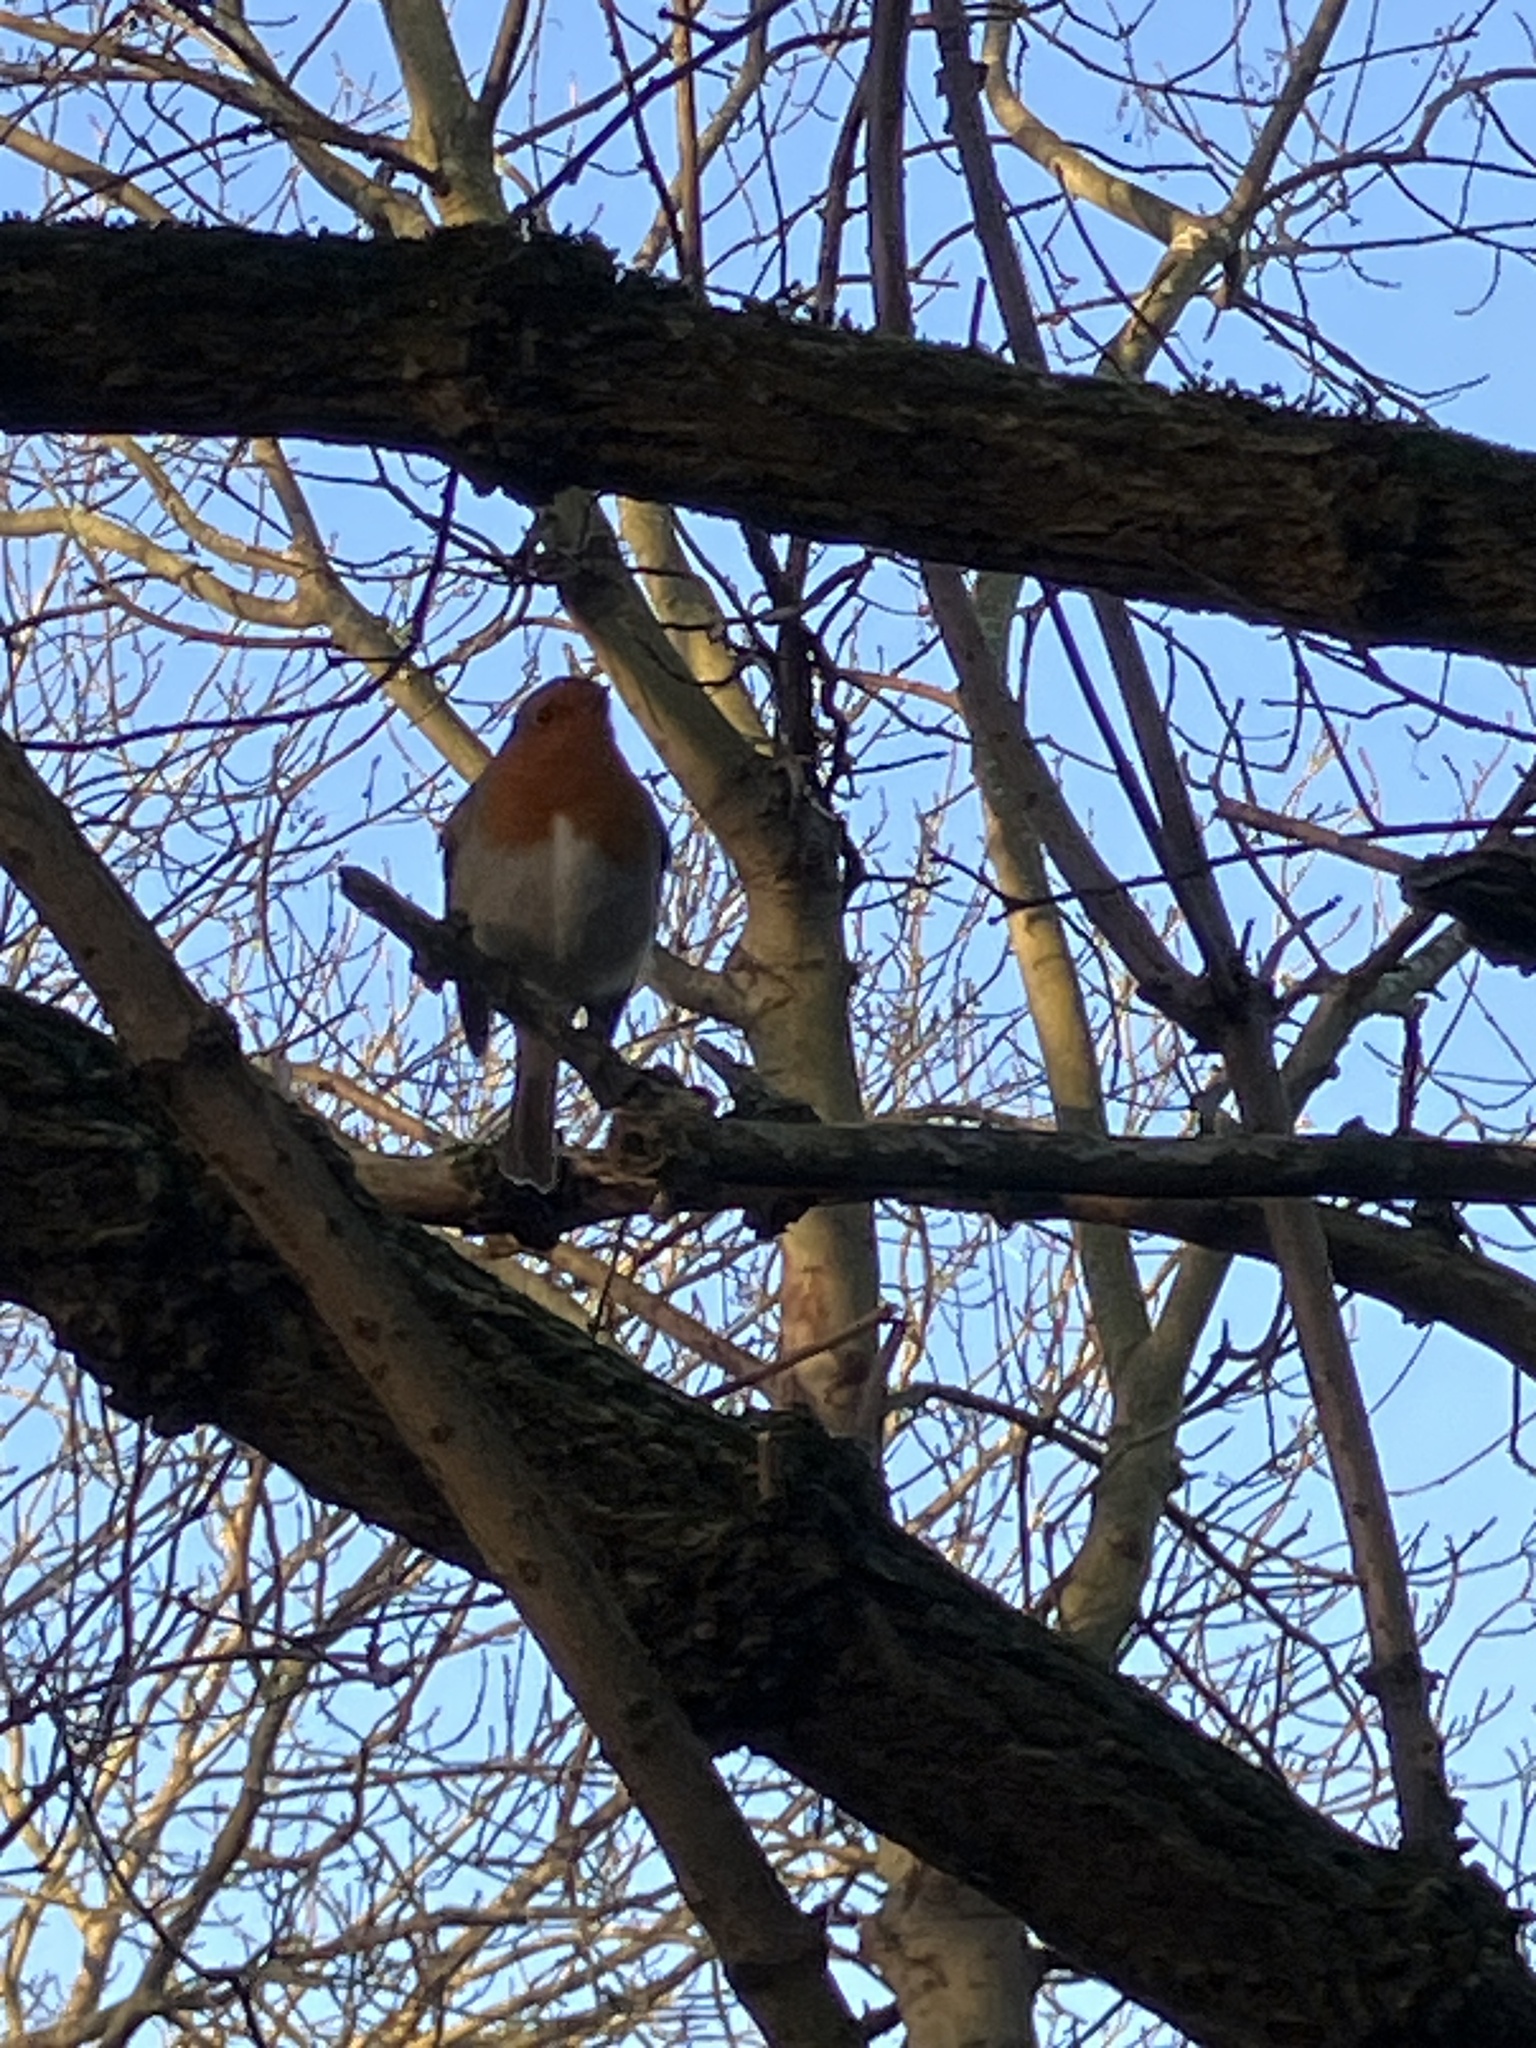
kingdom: Animalia
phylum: Chordata
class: Aves
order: Passeriformes
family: Muscicapidae
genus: Erithacus
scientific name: Erithacus rubecula
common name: European robin
